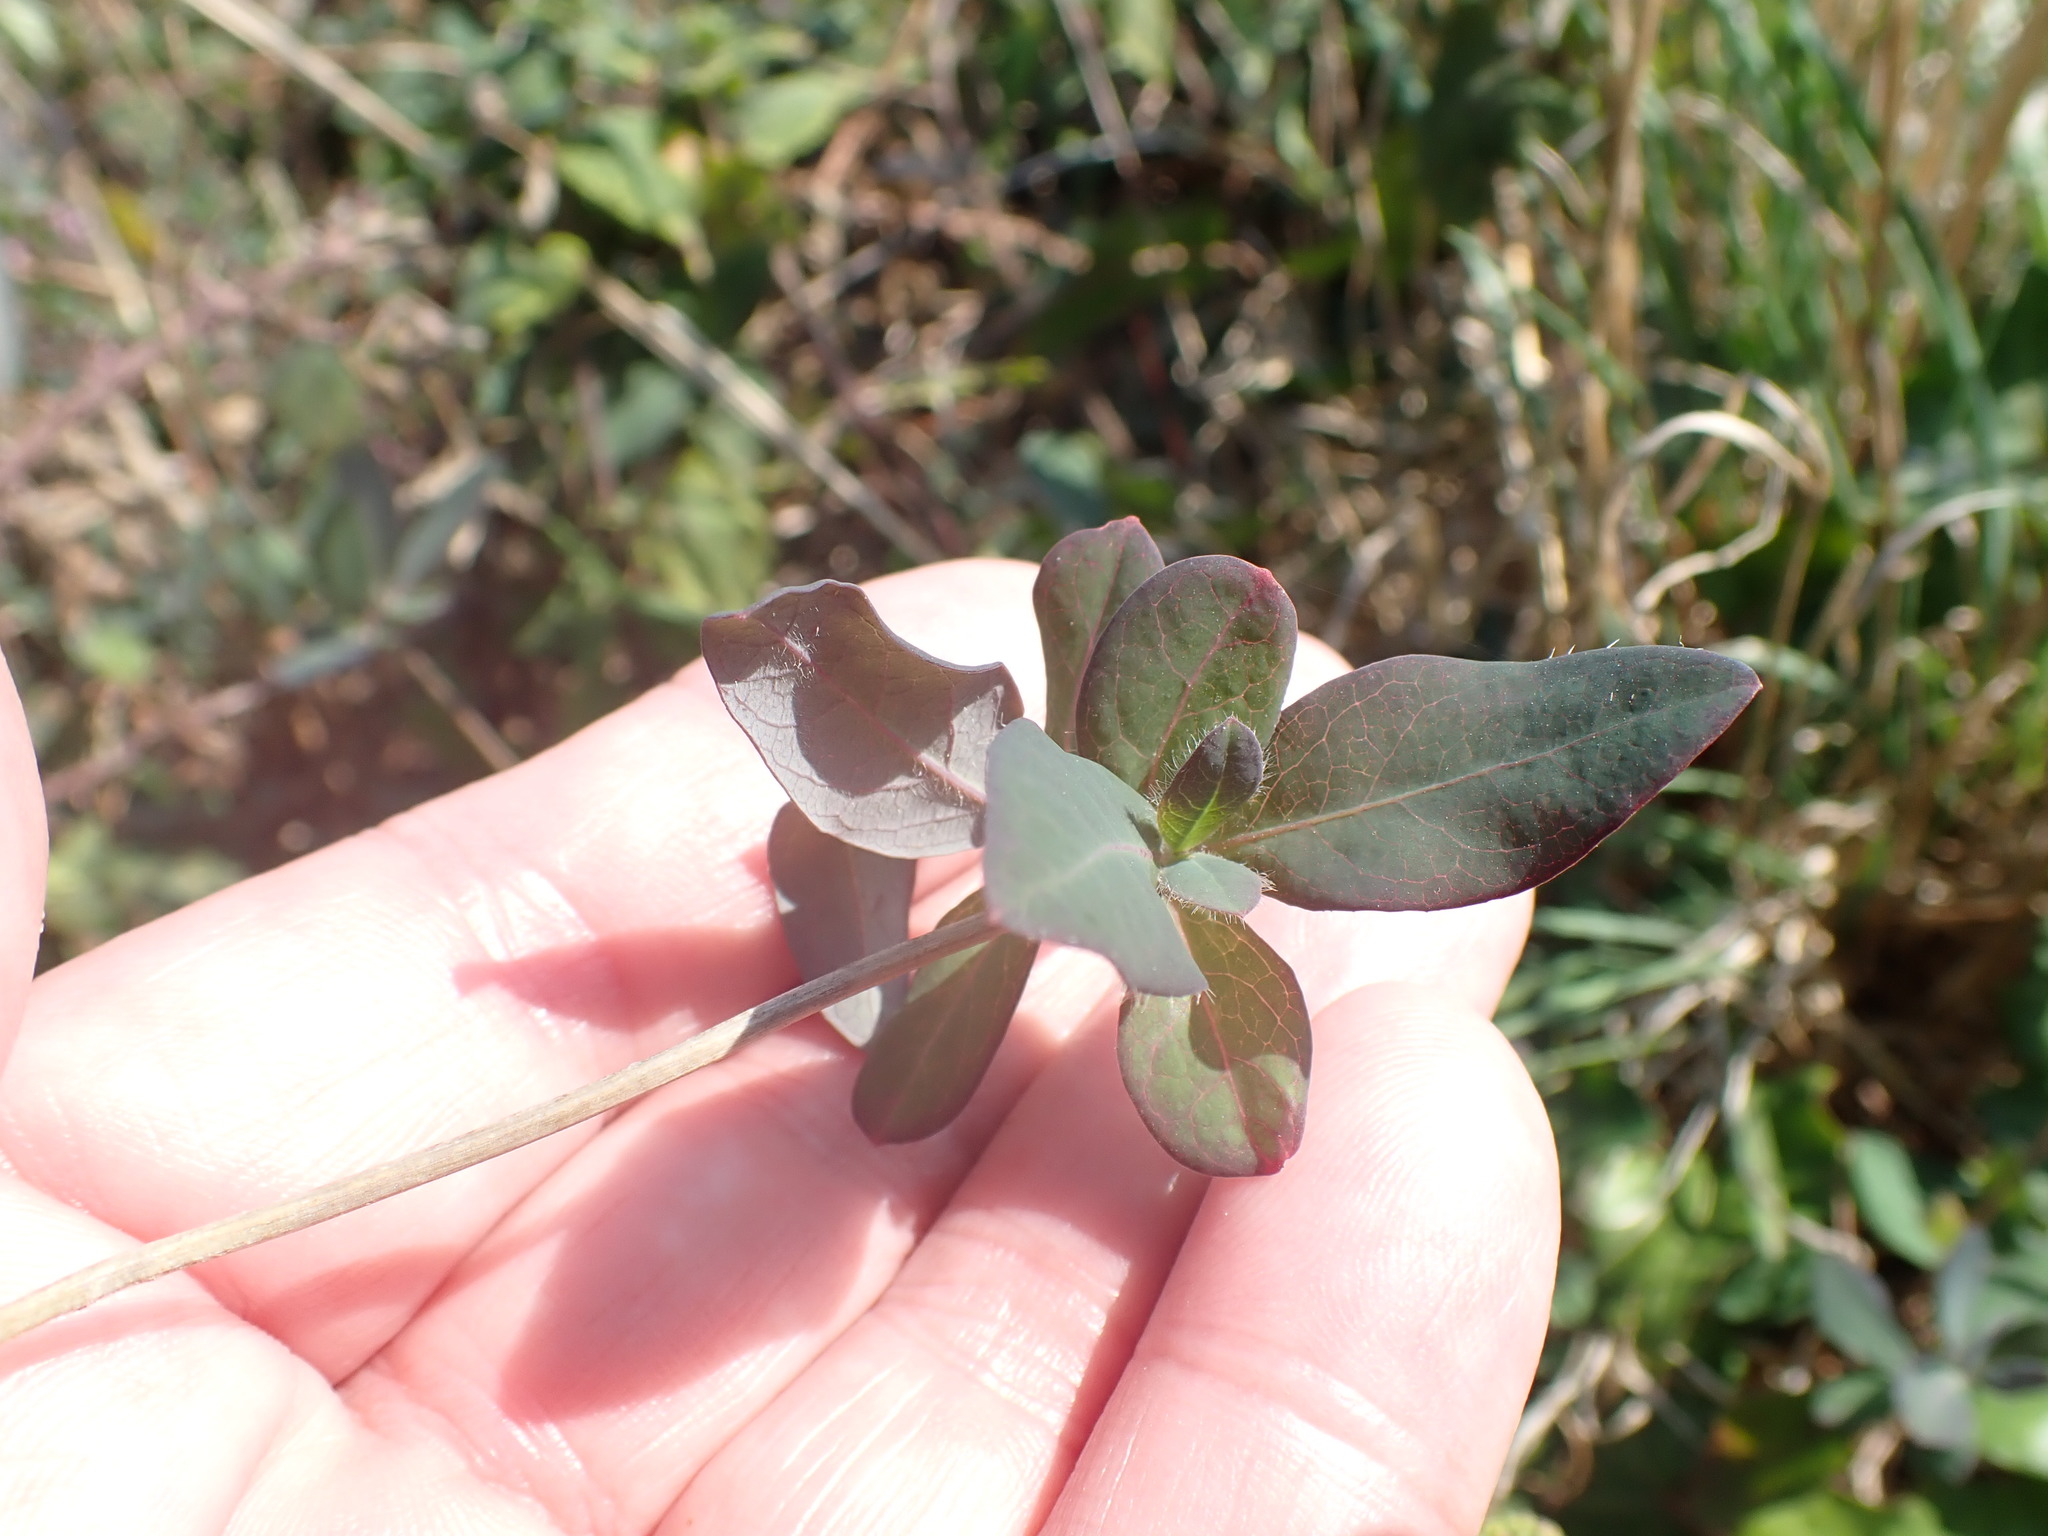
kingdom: Plantae
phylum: Tracheophyta
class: Magnoliopsida
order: Dipsacales
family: Caprifoliaceae
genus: Lonicera
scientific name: Lonicera periclymenum
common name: European honeysuckle
